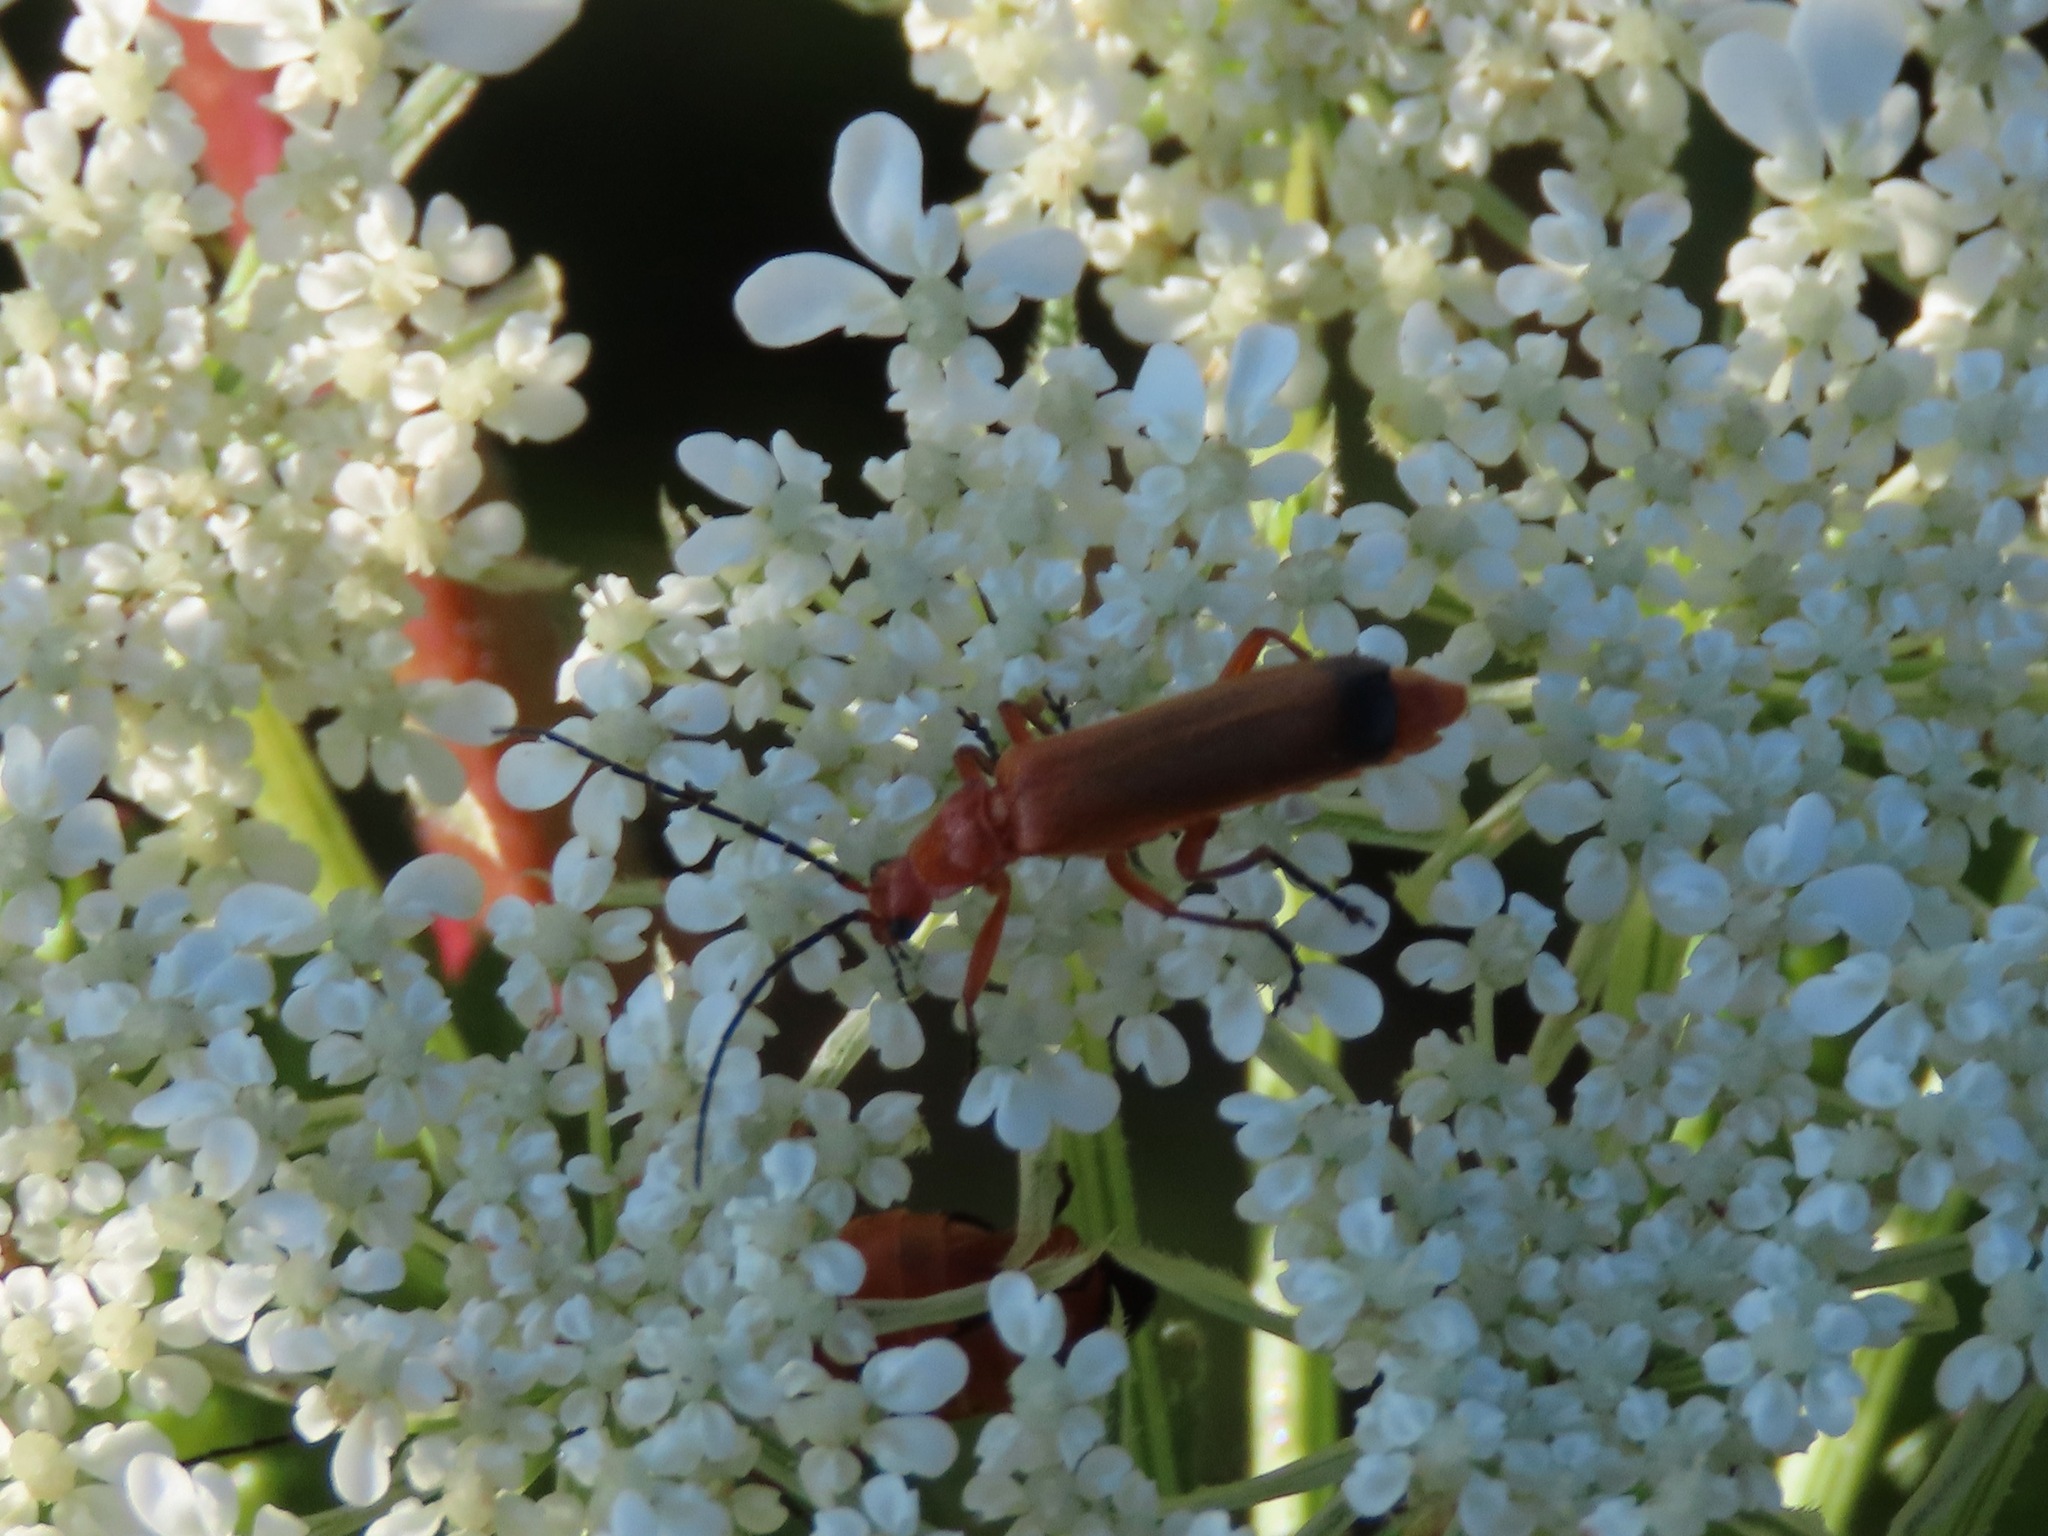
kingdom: Animalia
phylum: Arthropoda
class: Insecta
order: Coleoptera
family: Cantharidae
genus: Rhagonycha
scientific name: Rhagonycha fulva
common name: Common red soldier beetle
